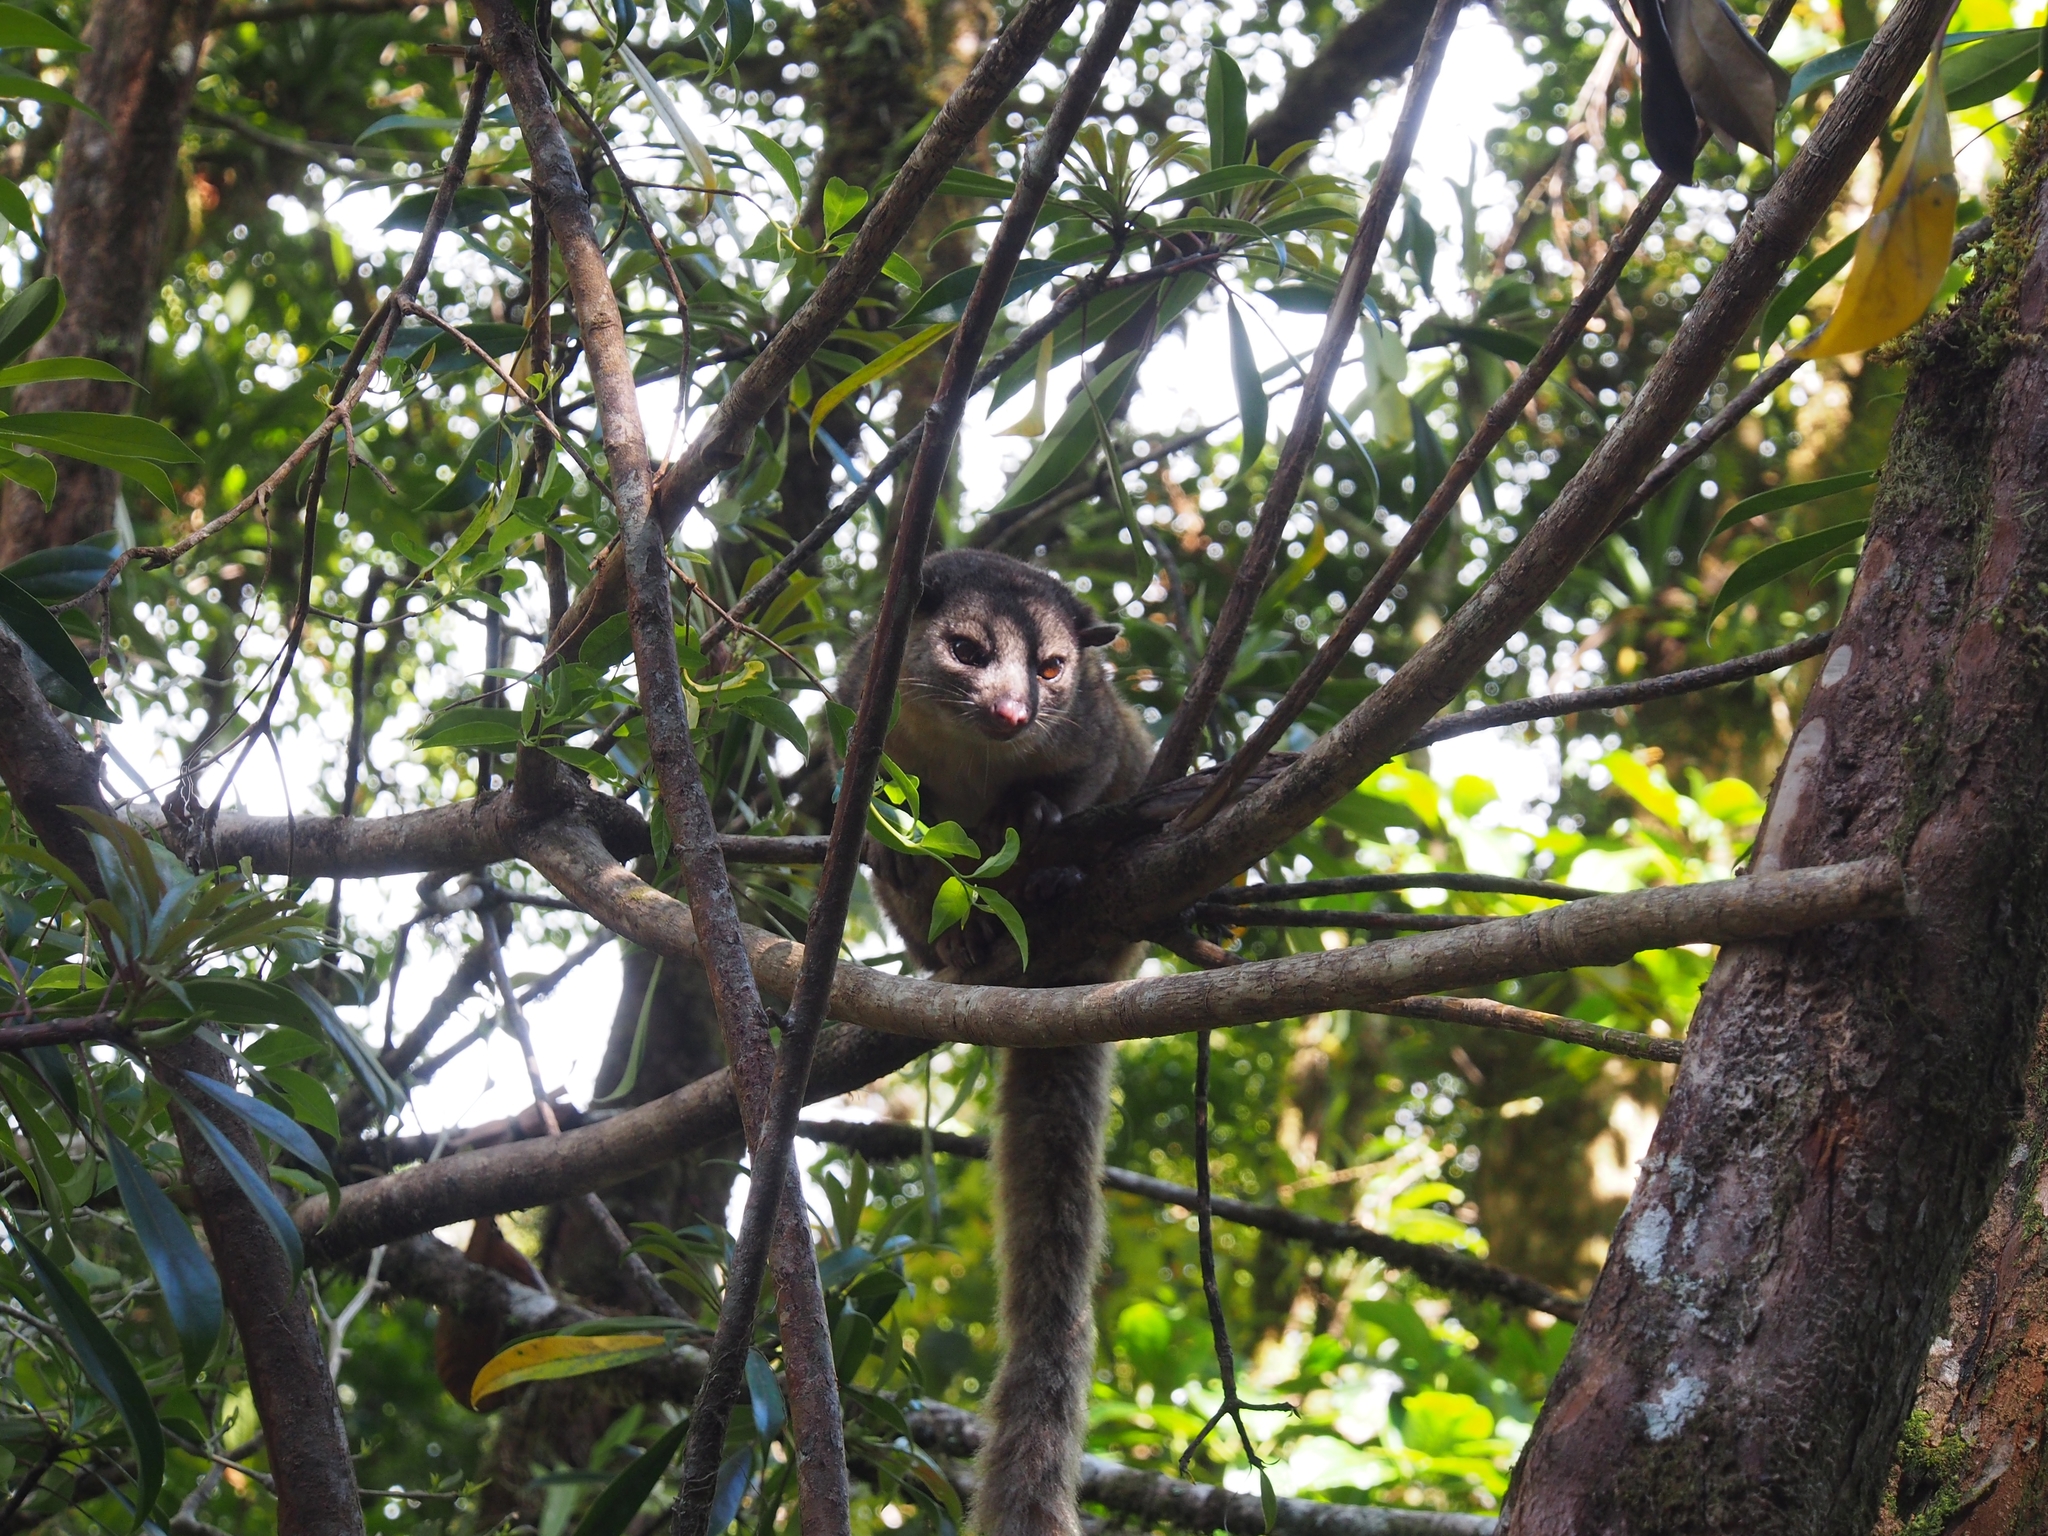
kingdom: Animalia
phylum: Chordata
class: Mammalia
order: Carnivora
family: Procyonidae
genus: Bassaricyon
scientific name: Bassaricyon gabbii
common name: Olingo
